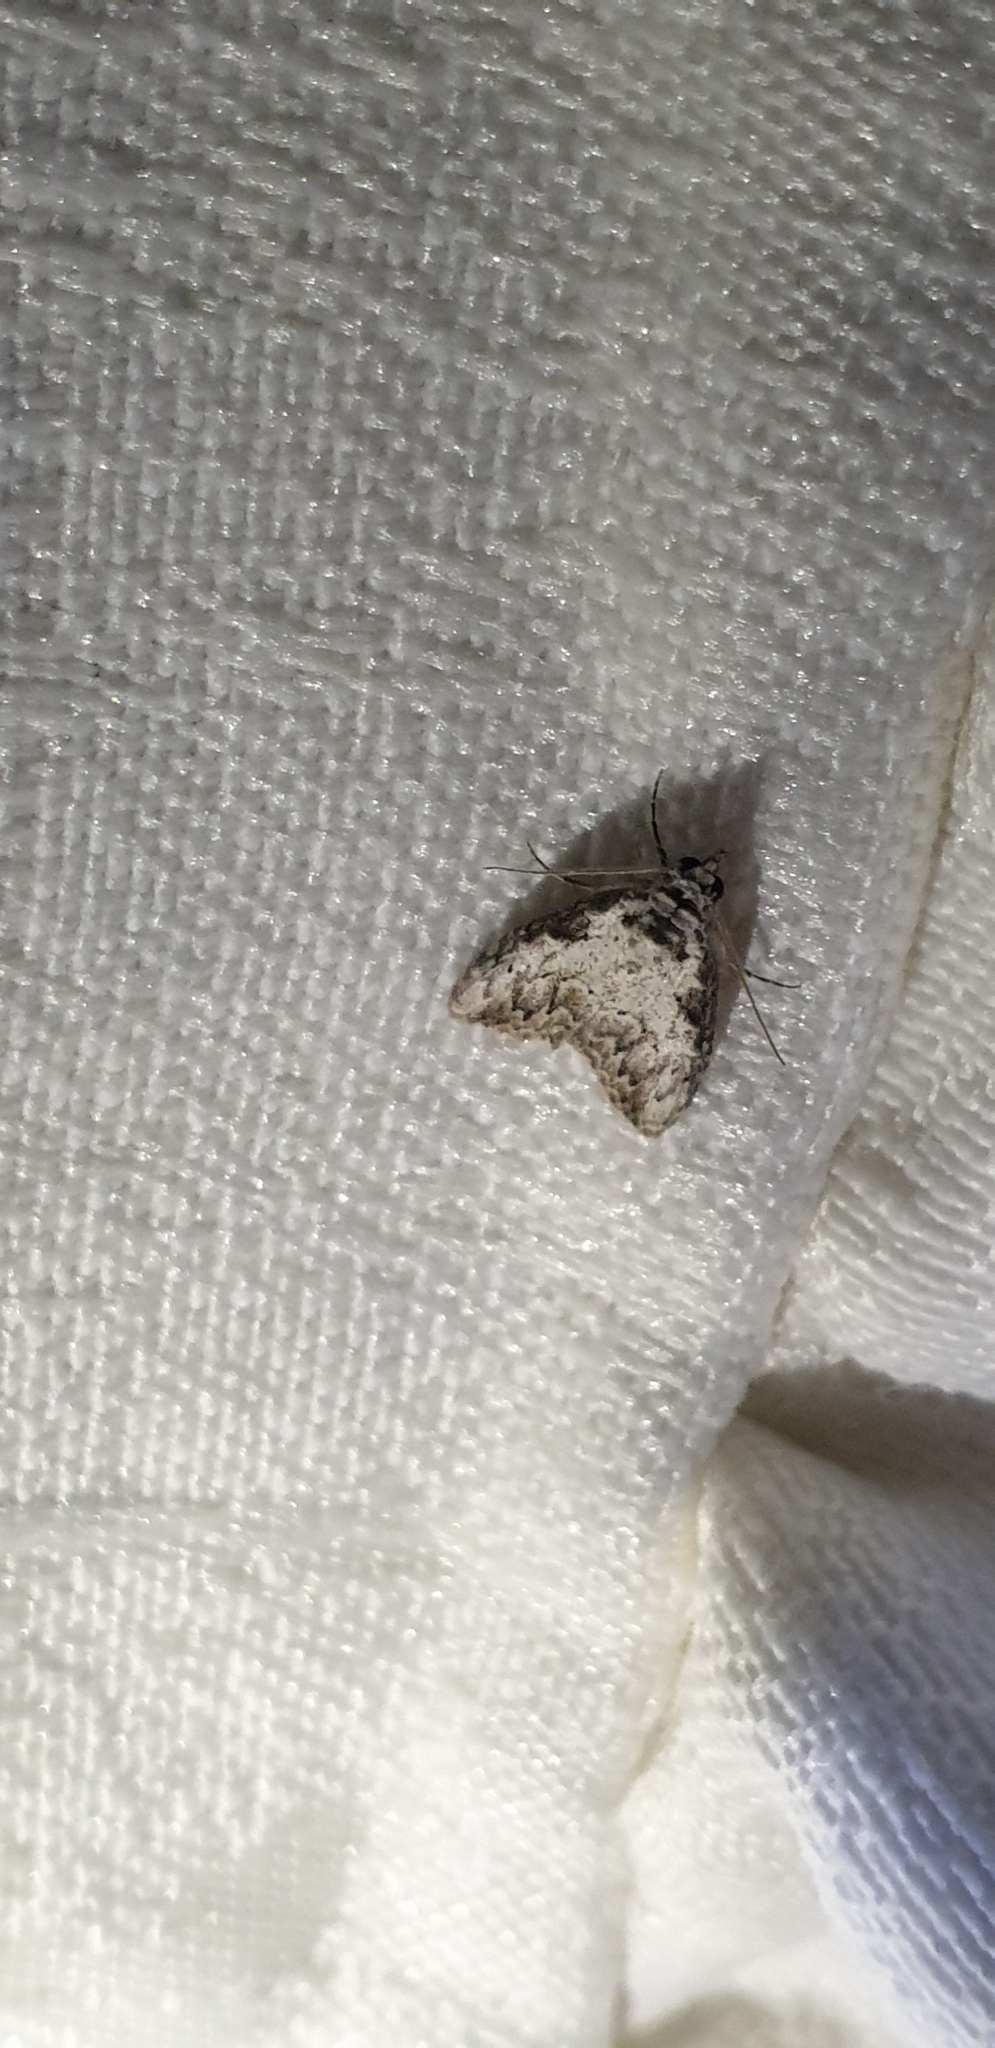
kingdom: Animalia
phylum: Arthropoda
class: Insecta
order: Lepidoptera
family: Nolidae
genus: Nola
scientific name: Nola pleurochorda
